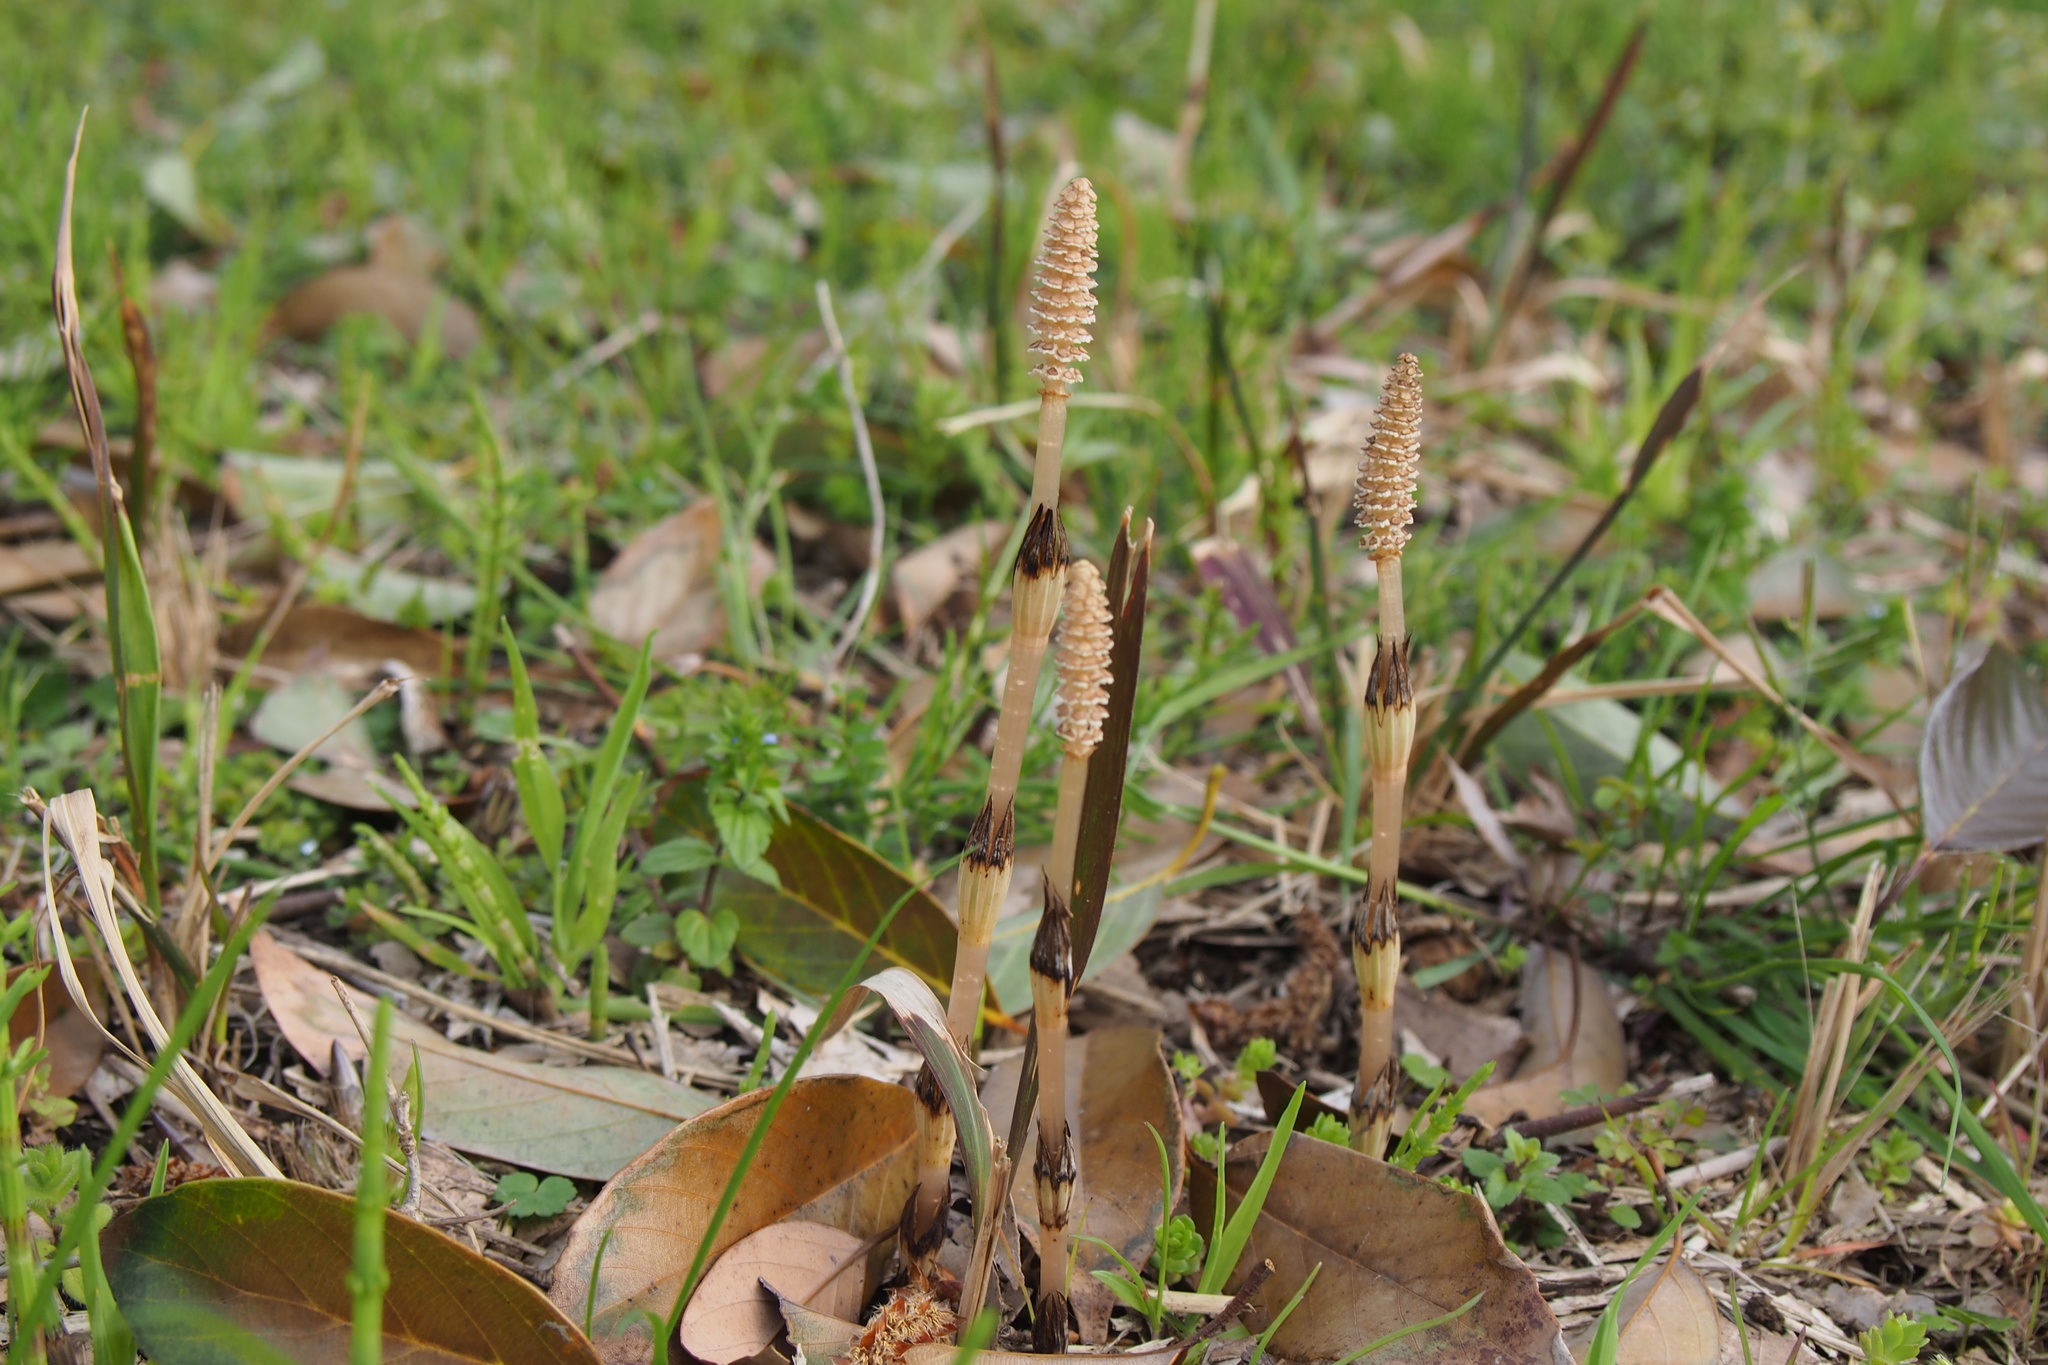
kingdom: Plantae
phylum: Tracheophyta
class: Polypodiopsida
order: Equisetales
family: Equisetaceae
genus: Equisetum
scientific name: Equisetum arvense
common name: Field horsetail
